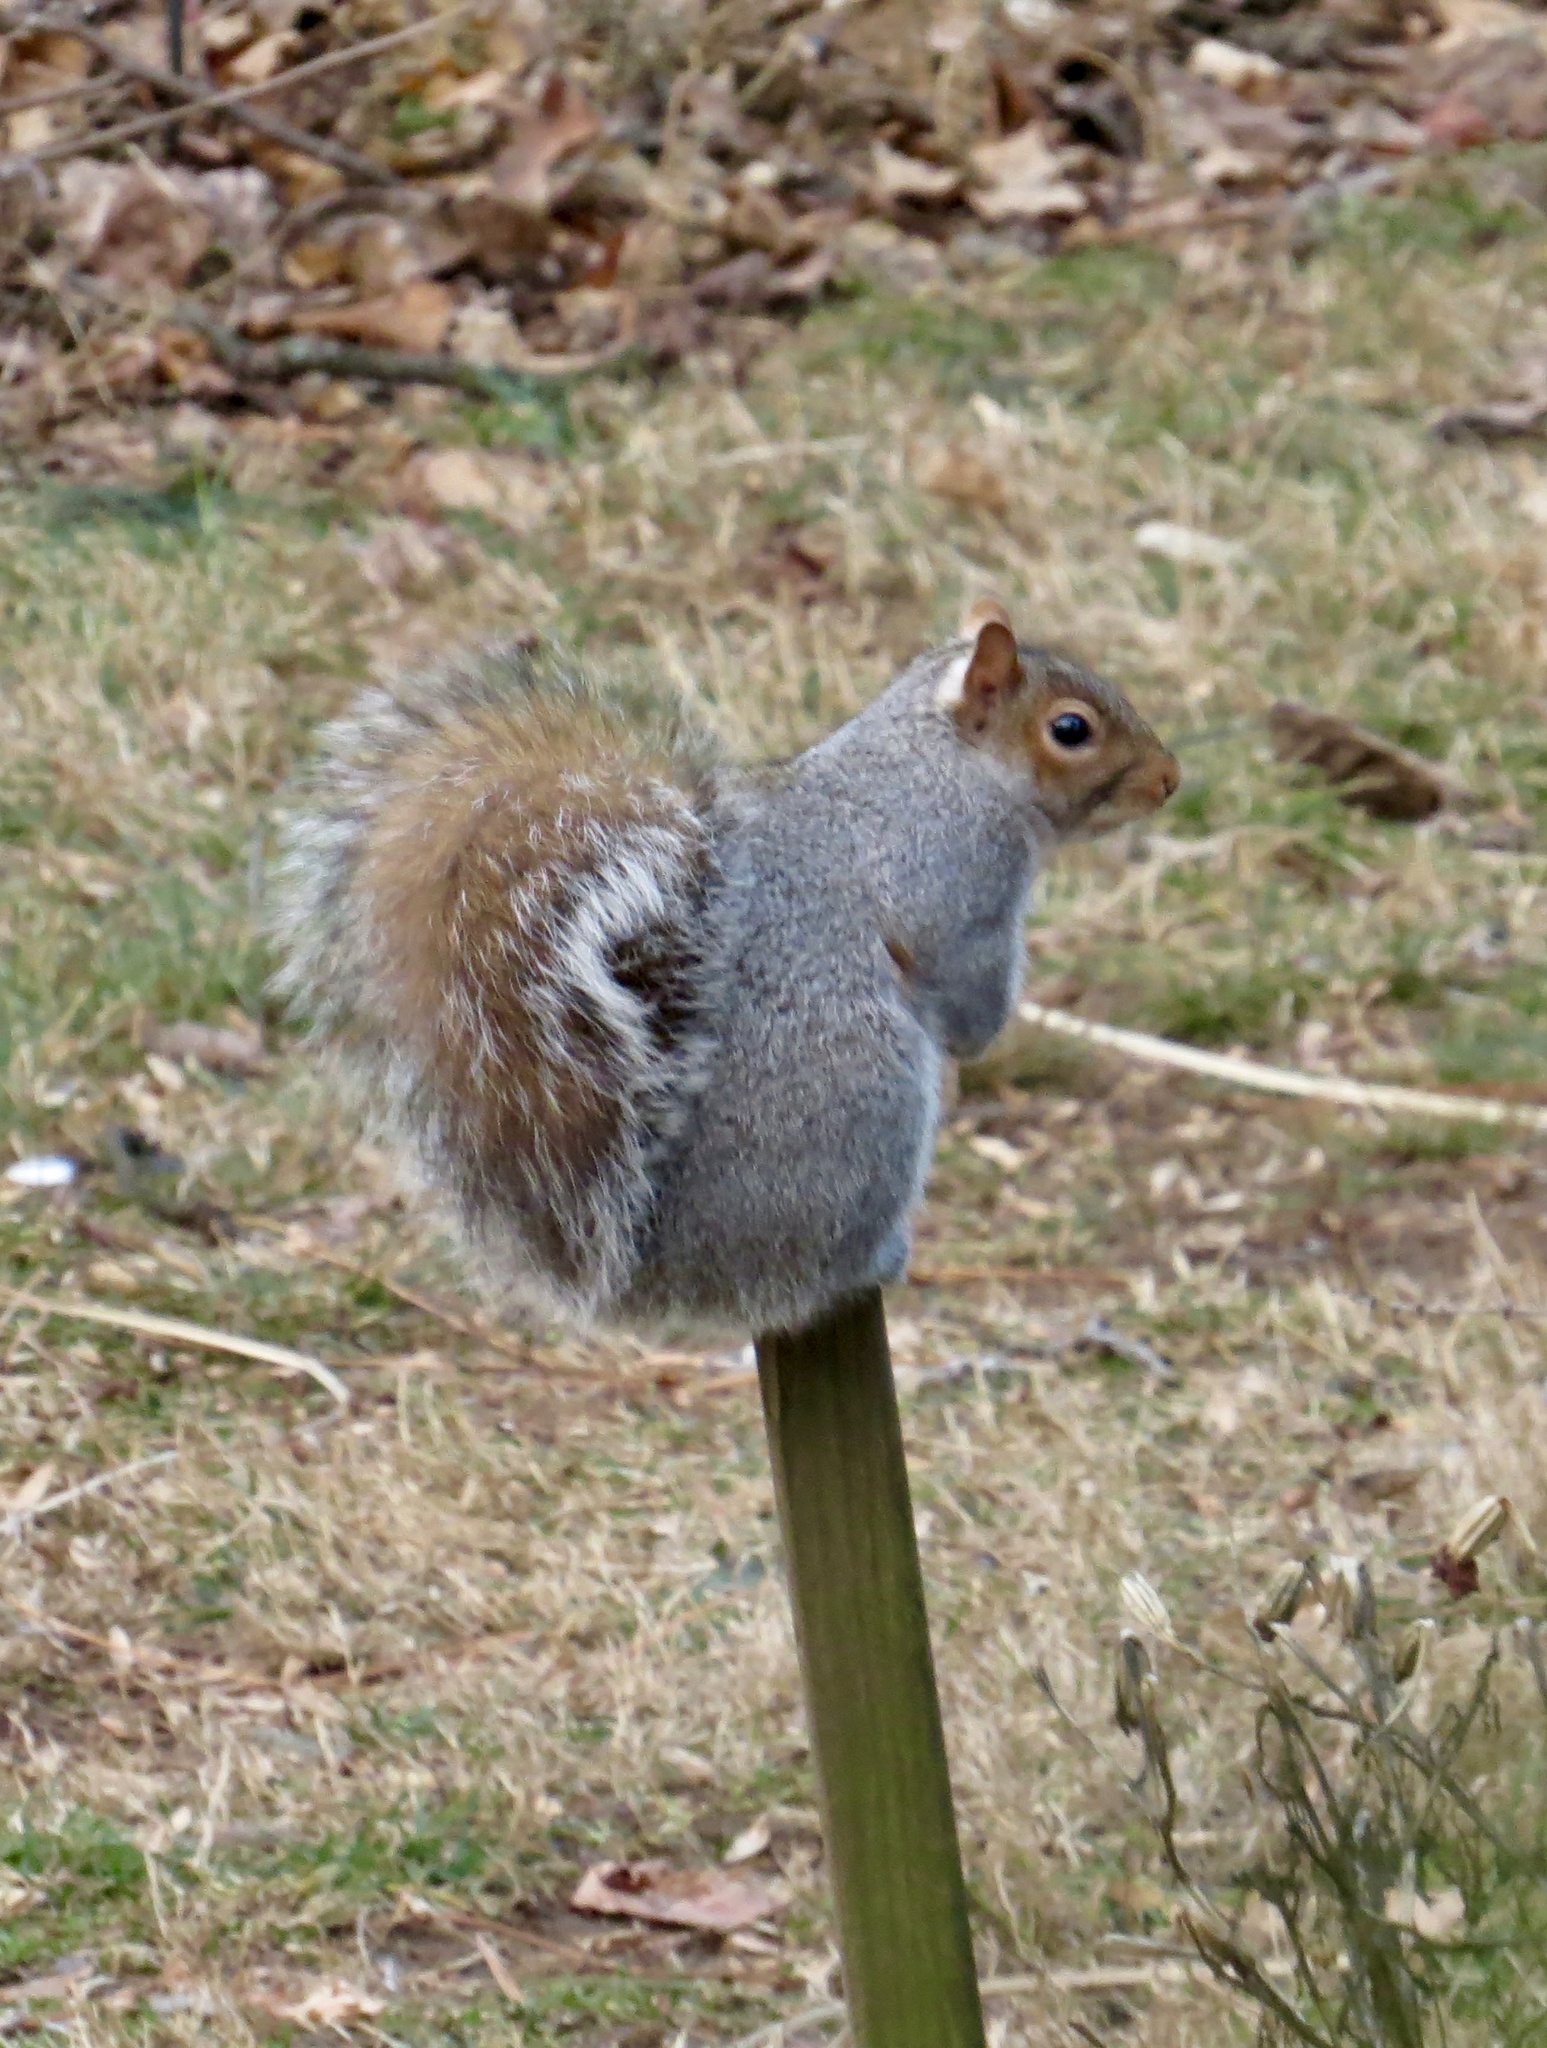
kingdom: Animalia
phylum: Chordata
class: Mammalia
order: Rodentia
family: Sciuridae
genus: Sciurus
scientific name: Sciurus carolinensis
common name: Eastern gray squirrel
